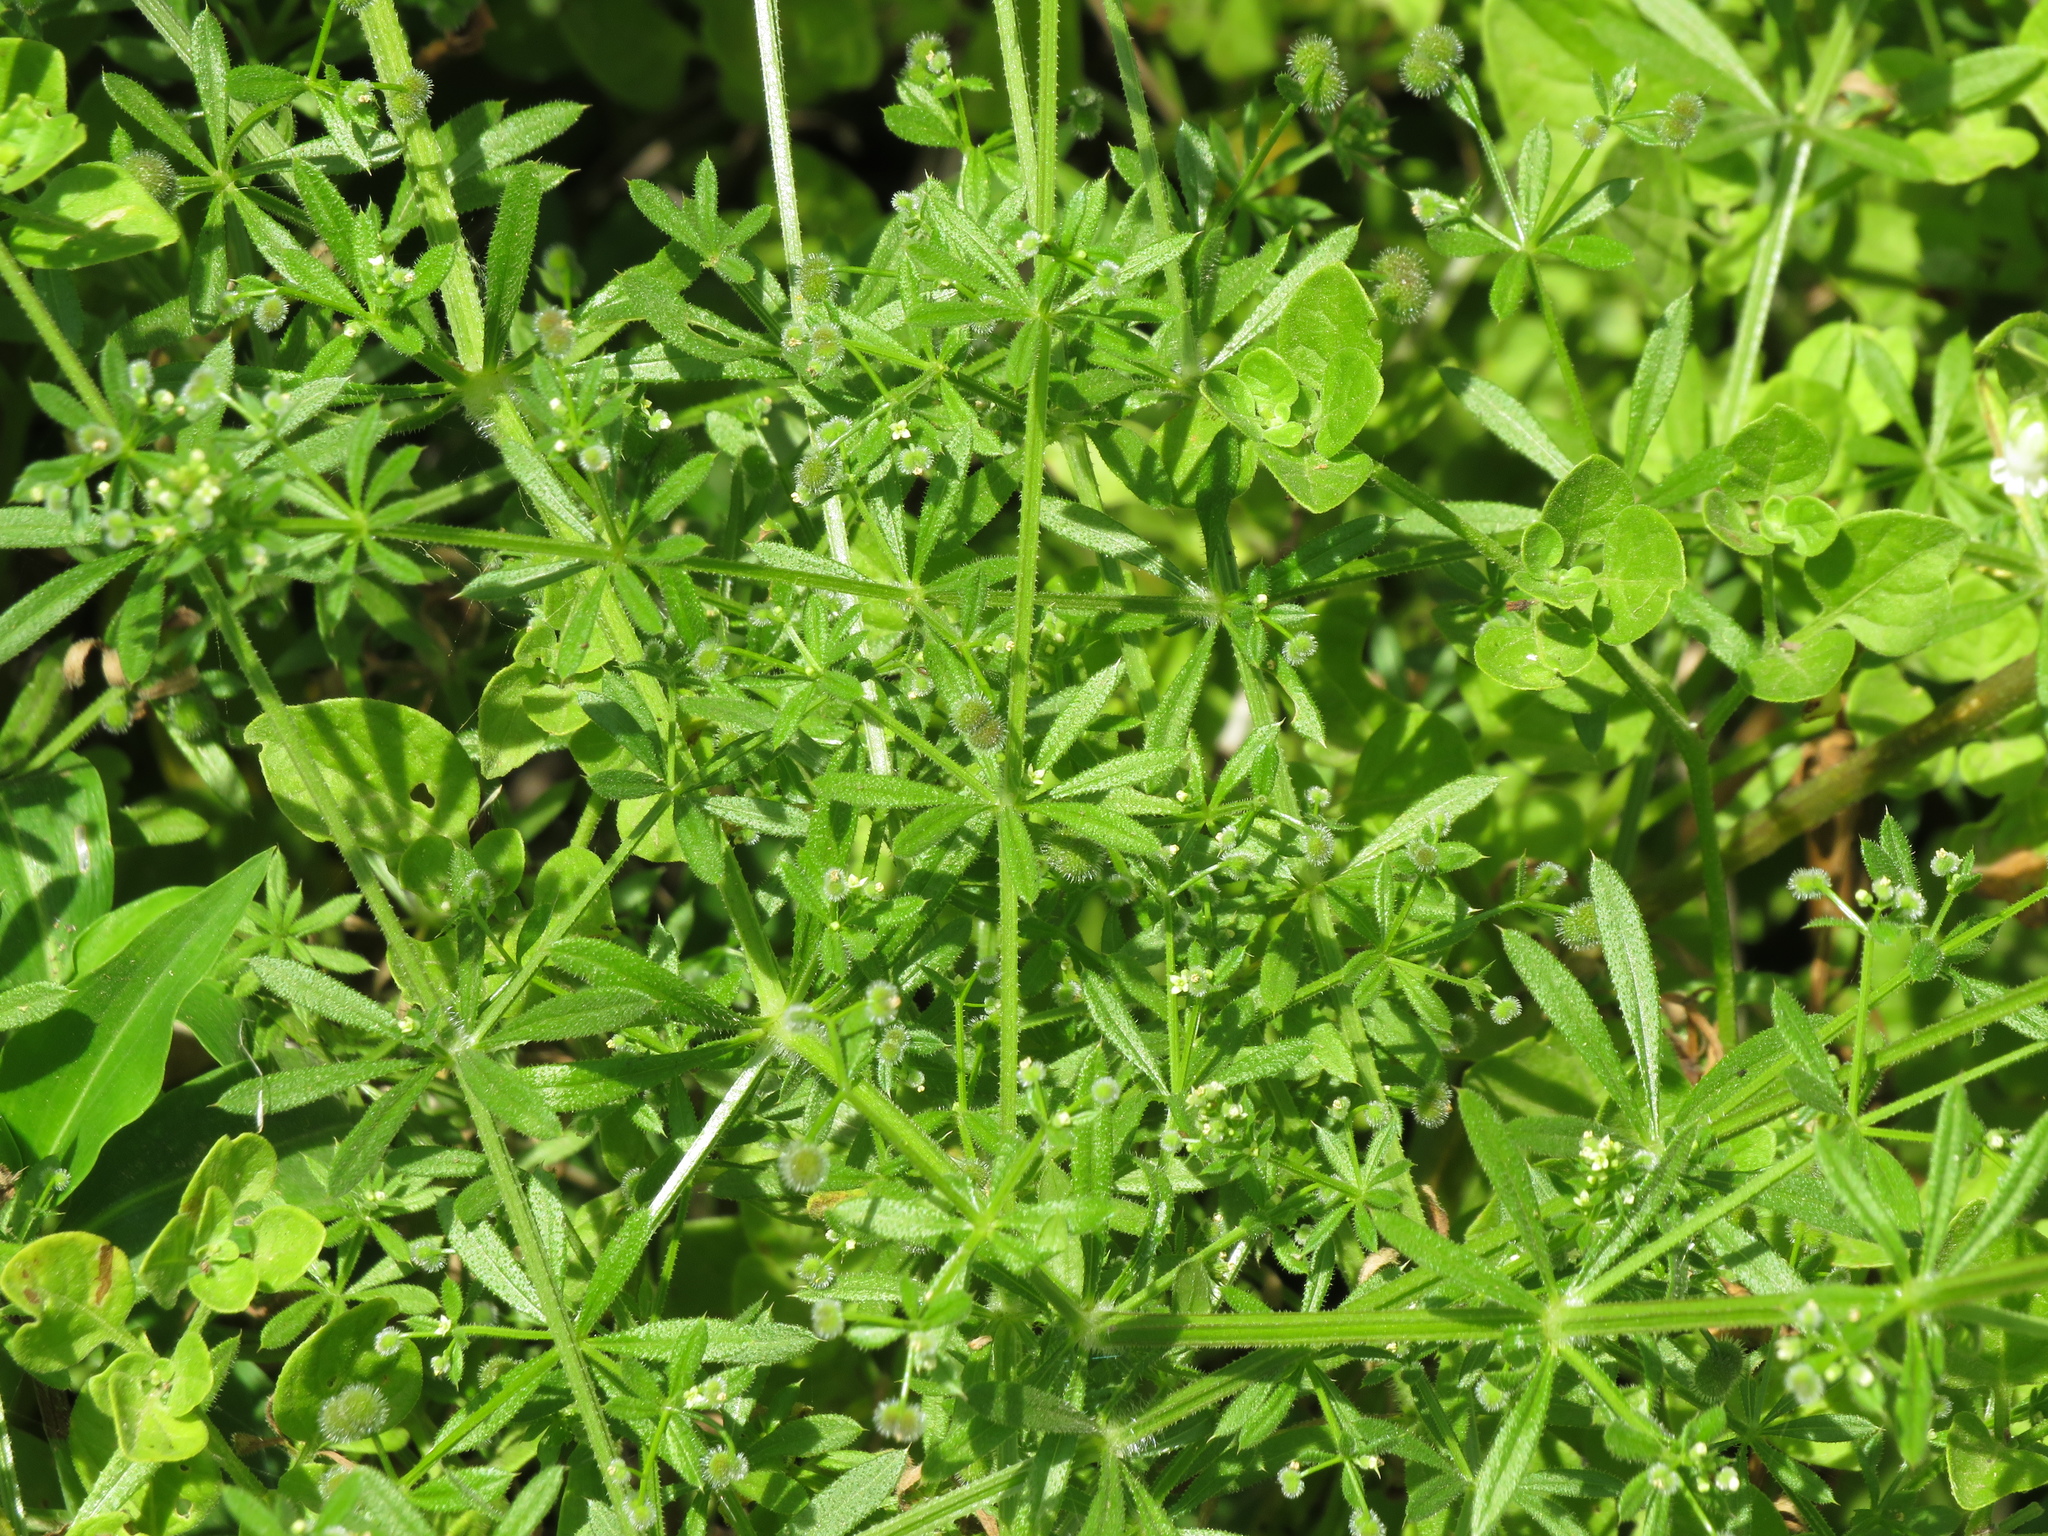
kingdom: Plantae
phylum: Tracheophyta
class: Magnoliopsida
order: Gentianales
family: Rubiaceae
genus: Galium
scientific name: Galium aparine
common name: Cleavers
